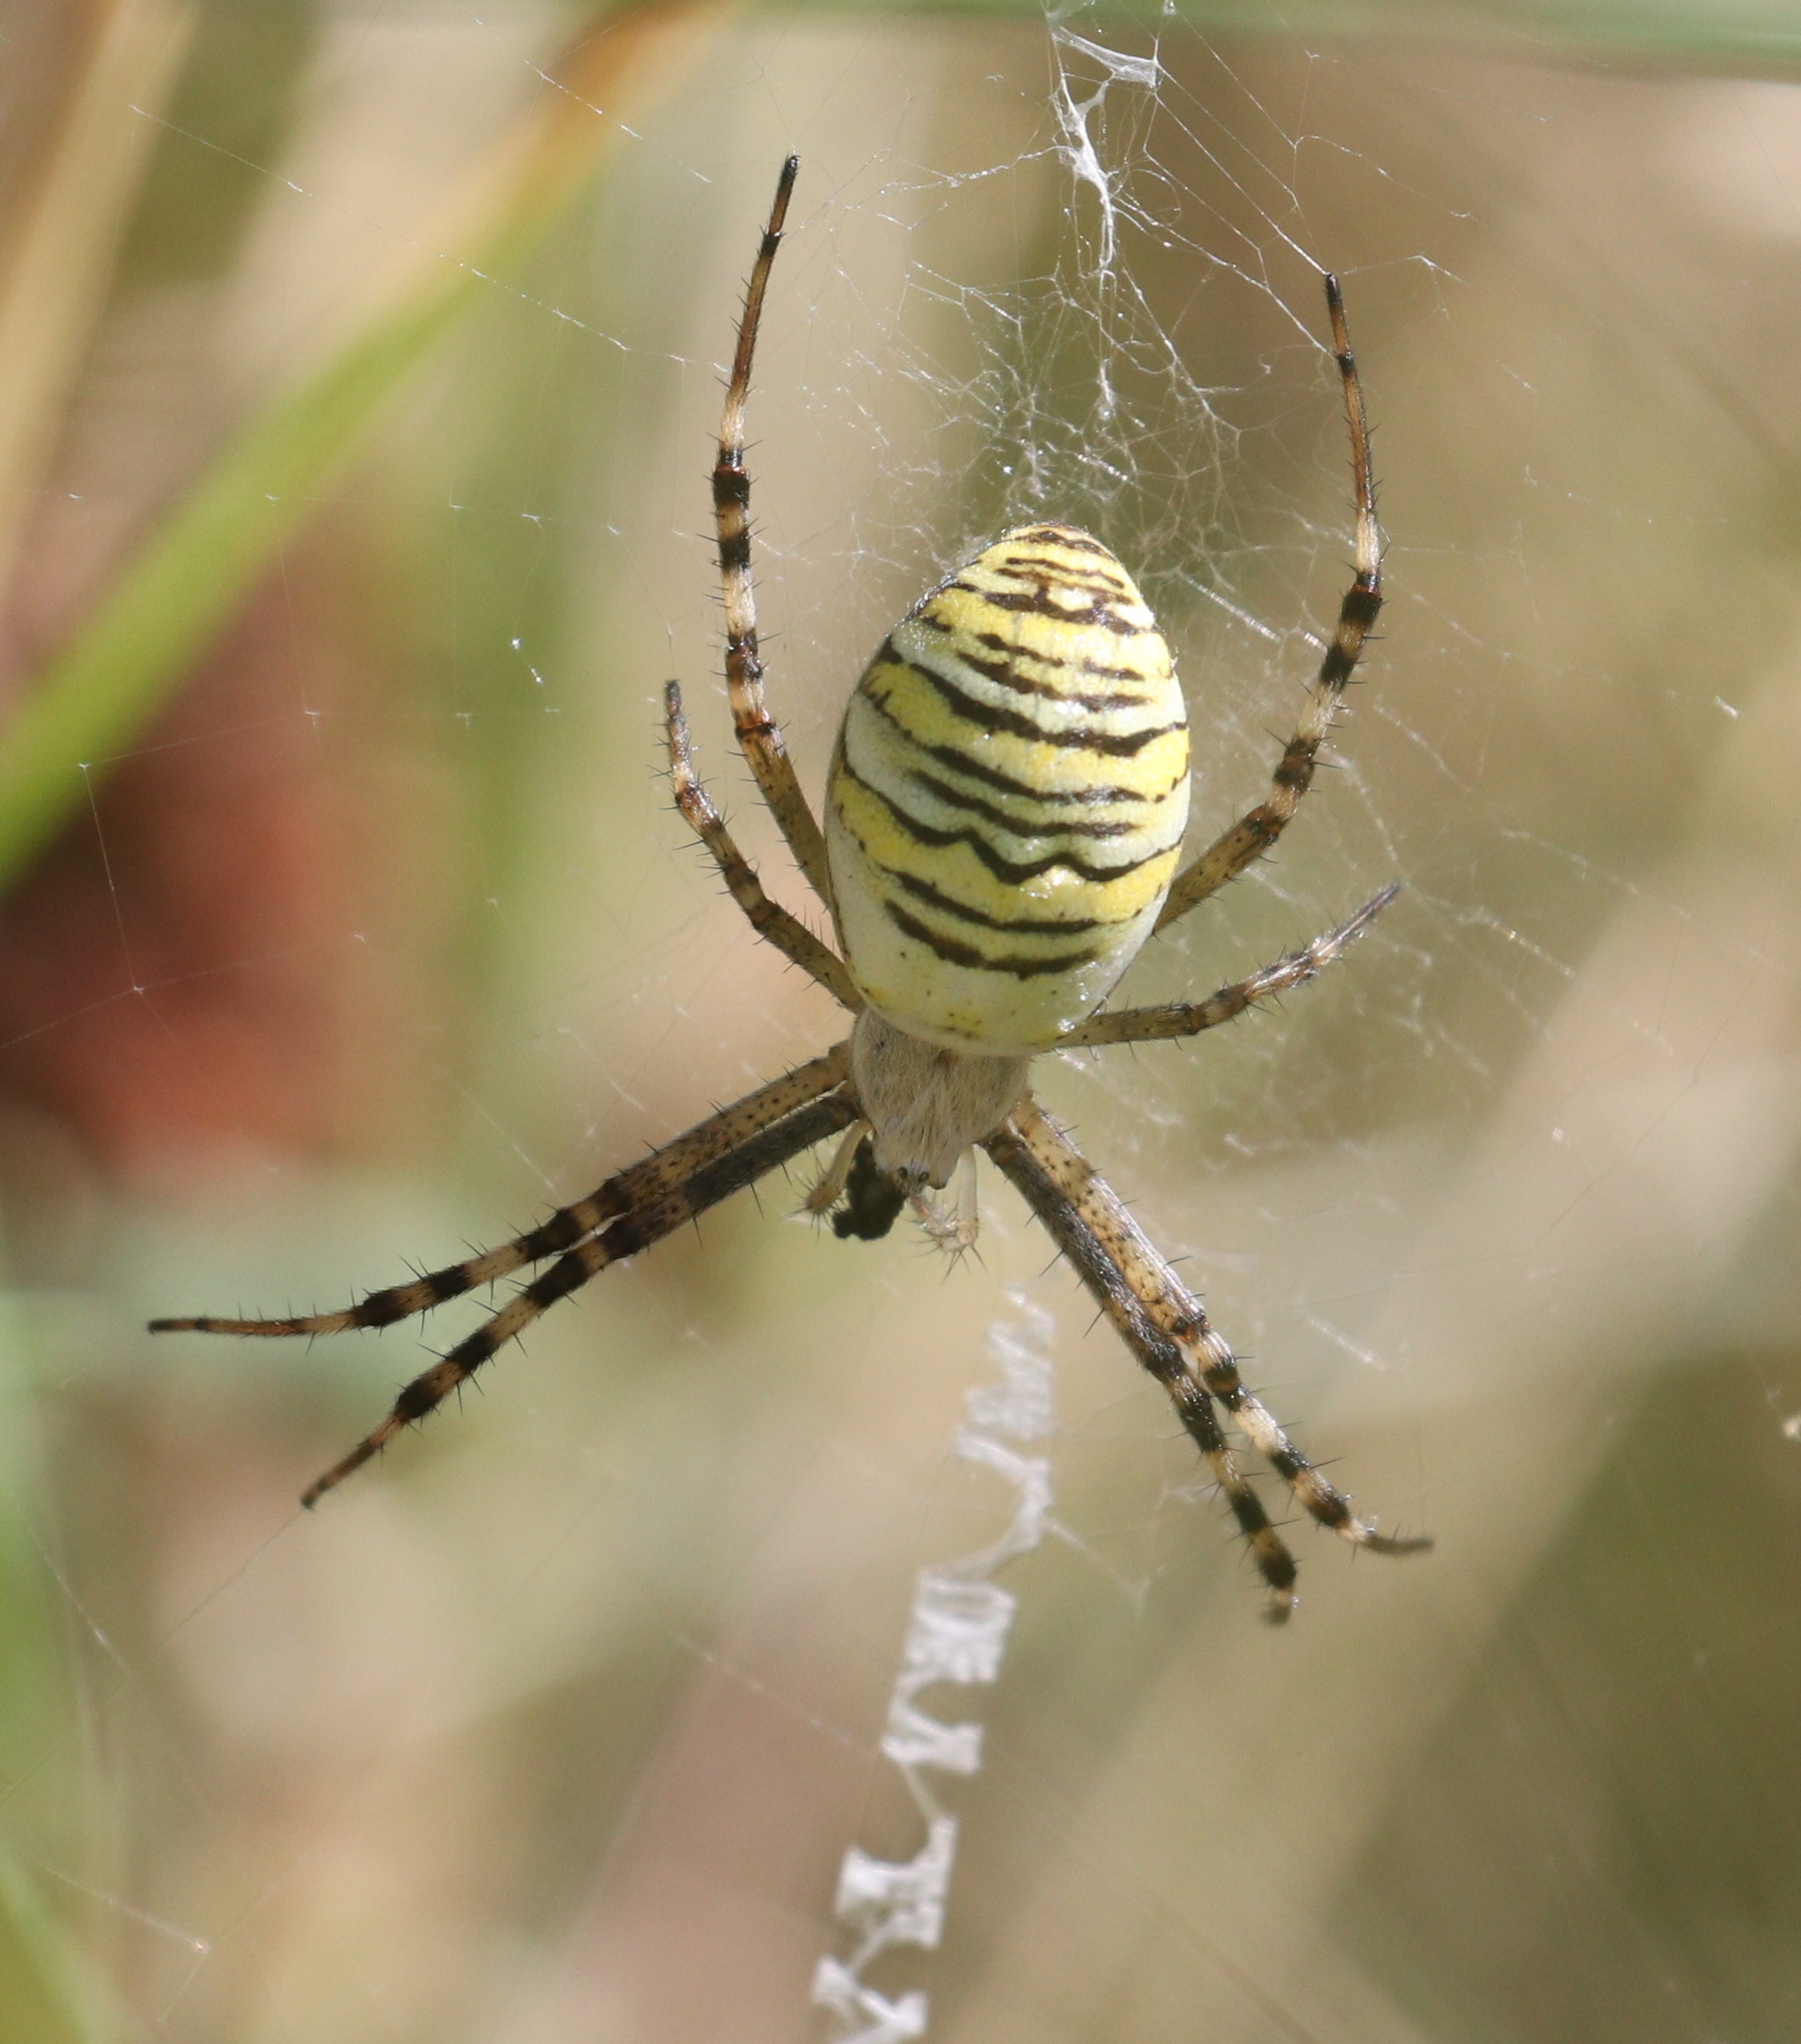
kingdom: Animalia
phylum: Arthropoda
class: Arachnida
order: Araneae
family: Araneidae
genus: Argiope
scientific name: Argiope bruennichi
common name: Wasp spider
